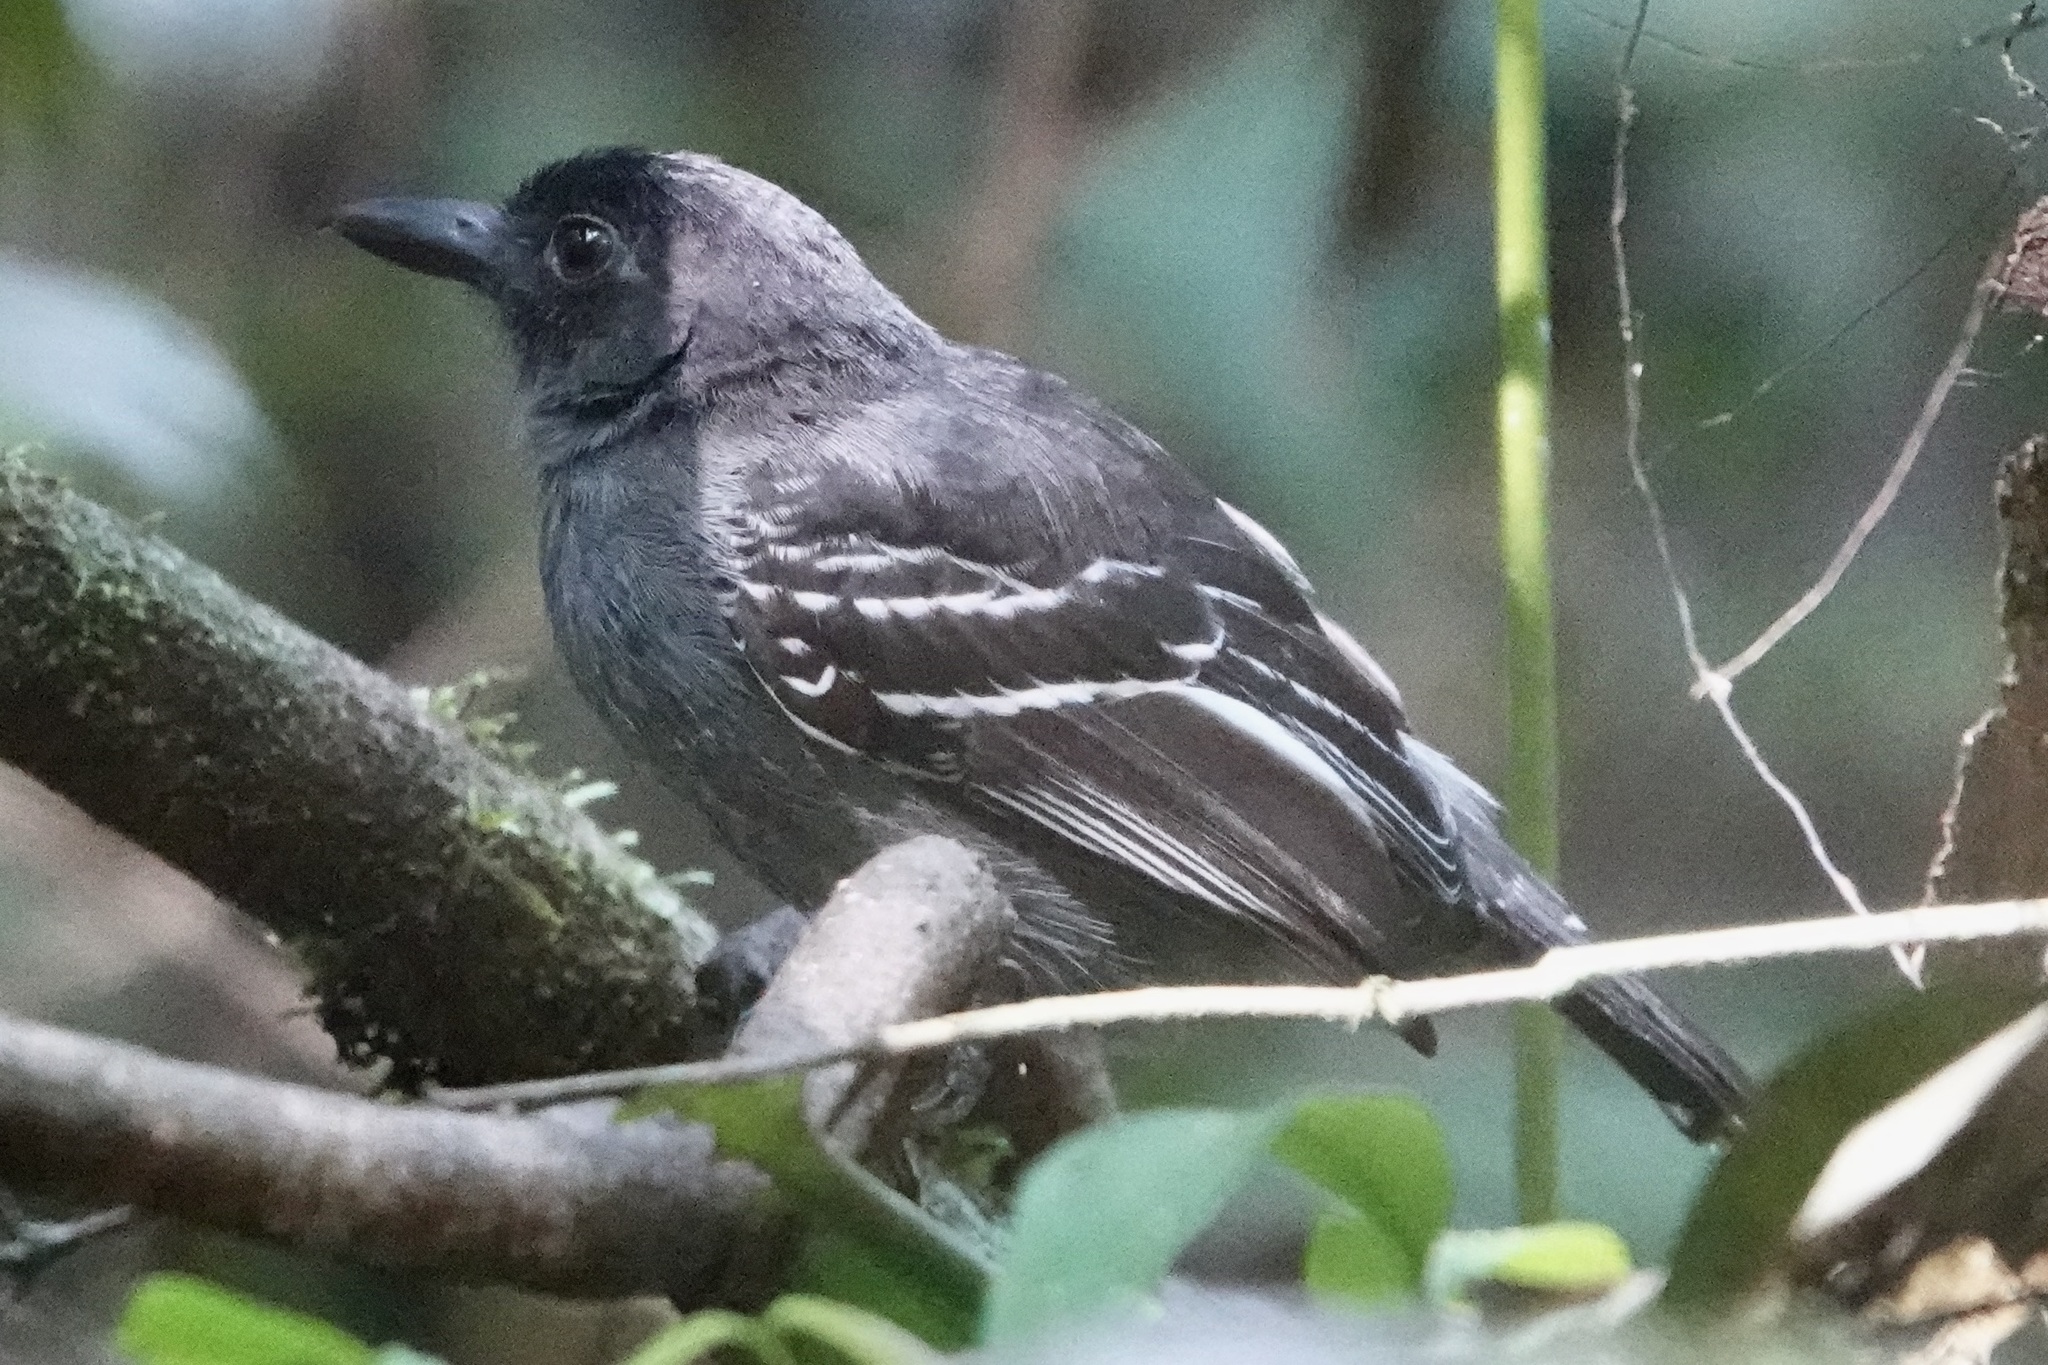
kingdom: Animalia
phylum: Chordata
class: Aves
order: Passeriformes
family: Thamnophilidae
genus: Thamnophilus
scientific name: Thamnophilus nigrocinereus
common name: Blackish-grey antshrike
